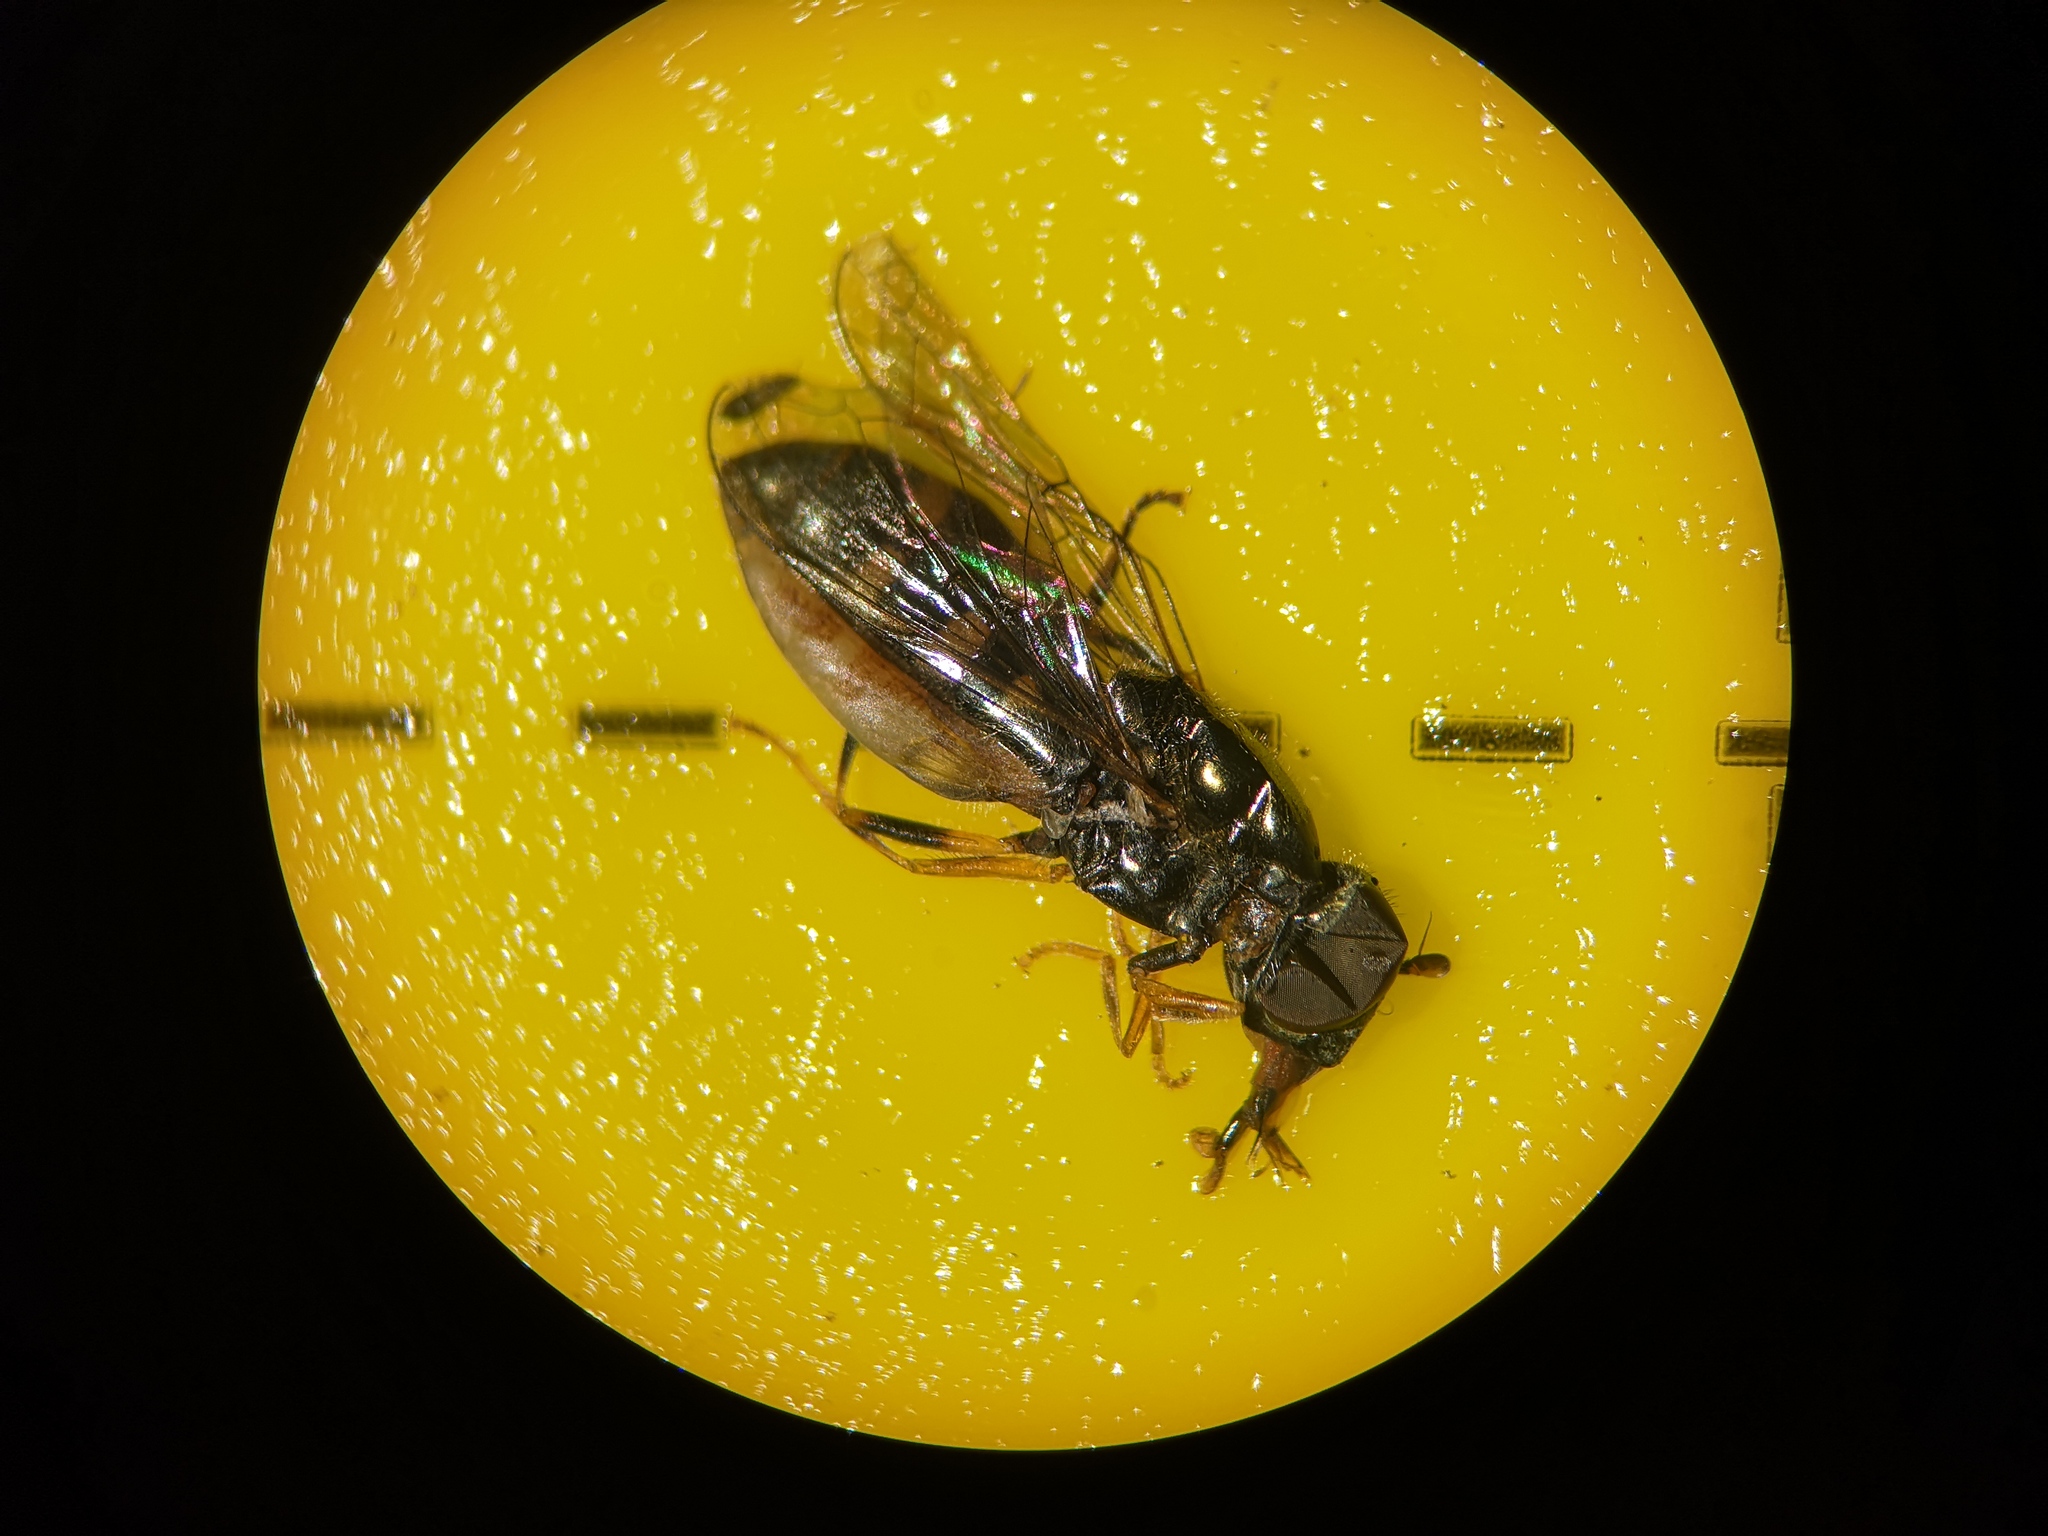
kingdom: Animalia
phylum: Arthropoda
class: Insecta
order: Diptera
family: Syrphidae
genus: Platycheirus
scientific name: Platycheirus
